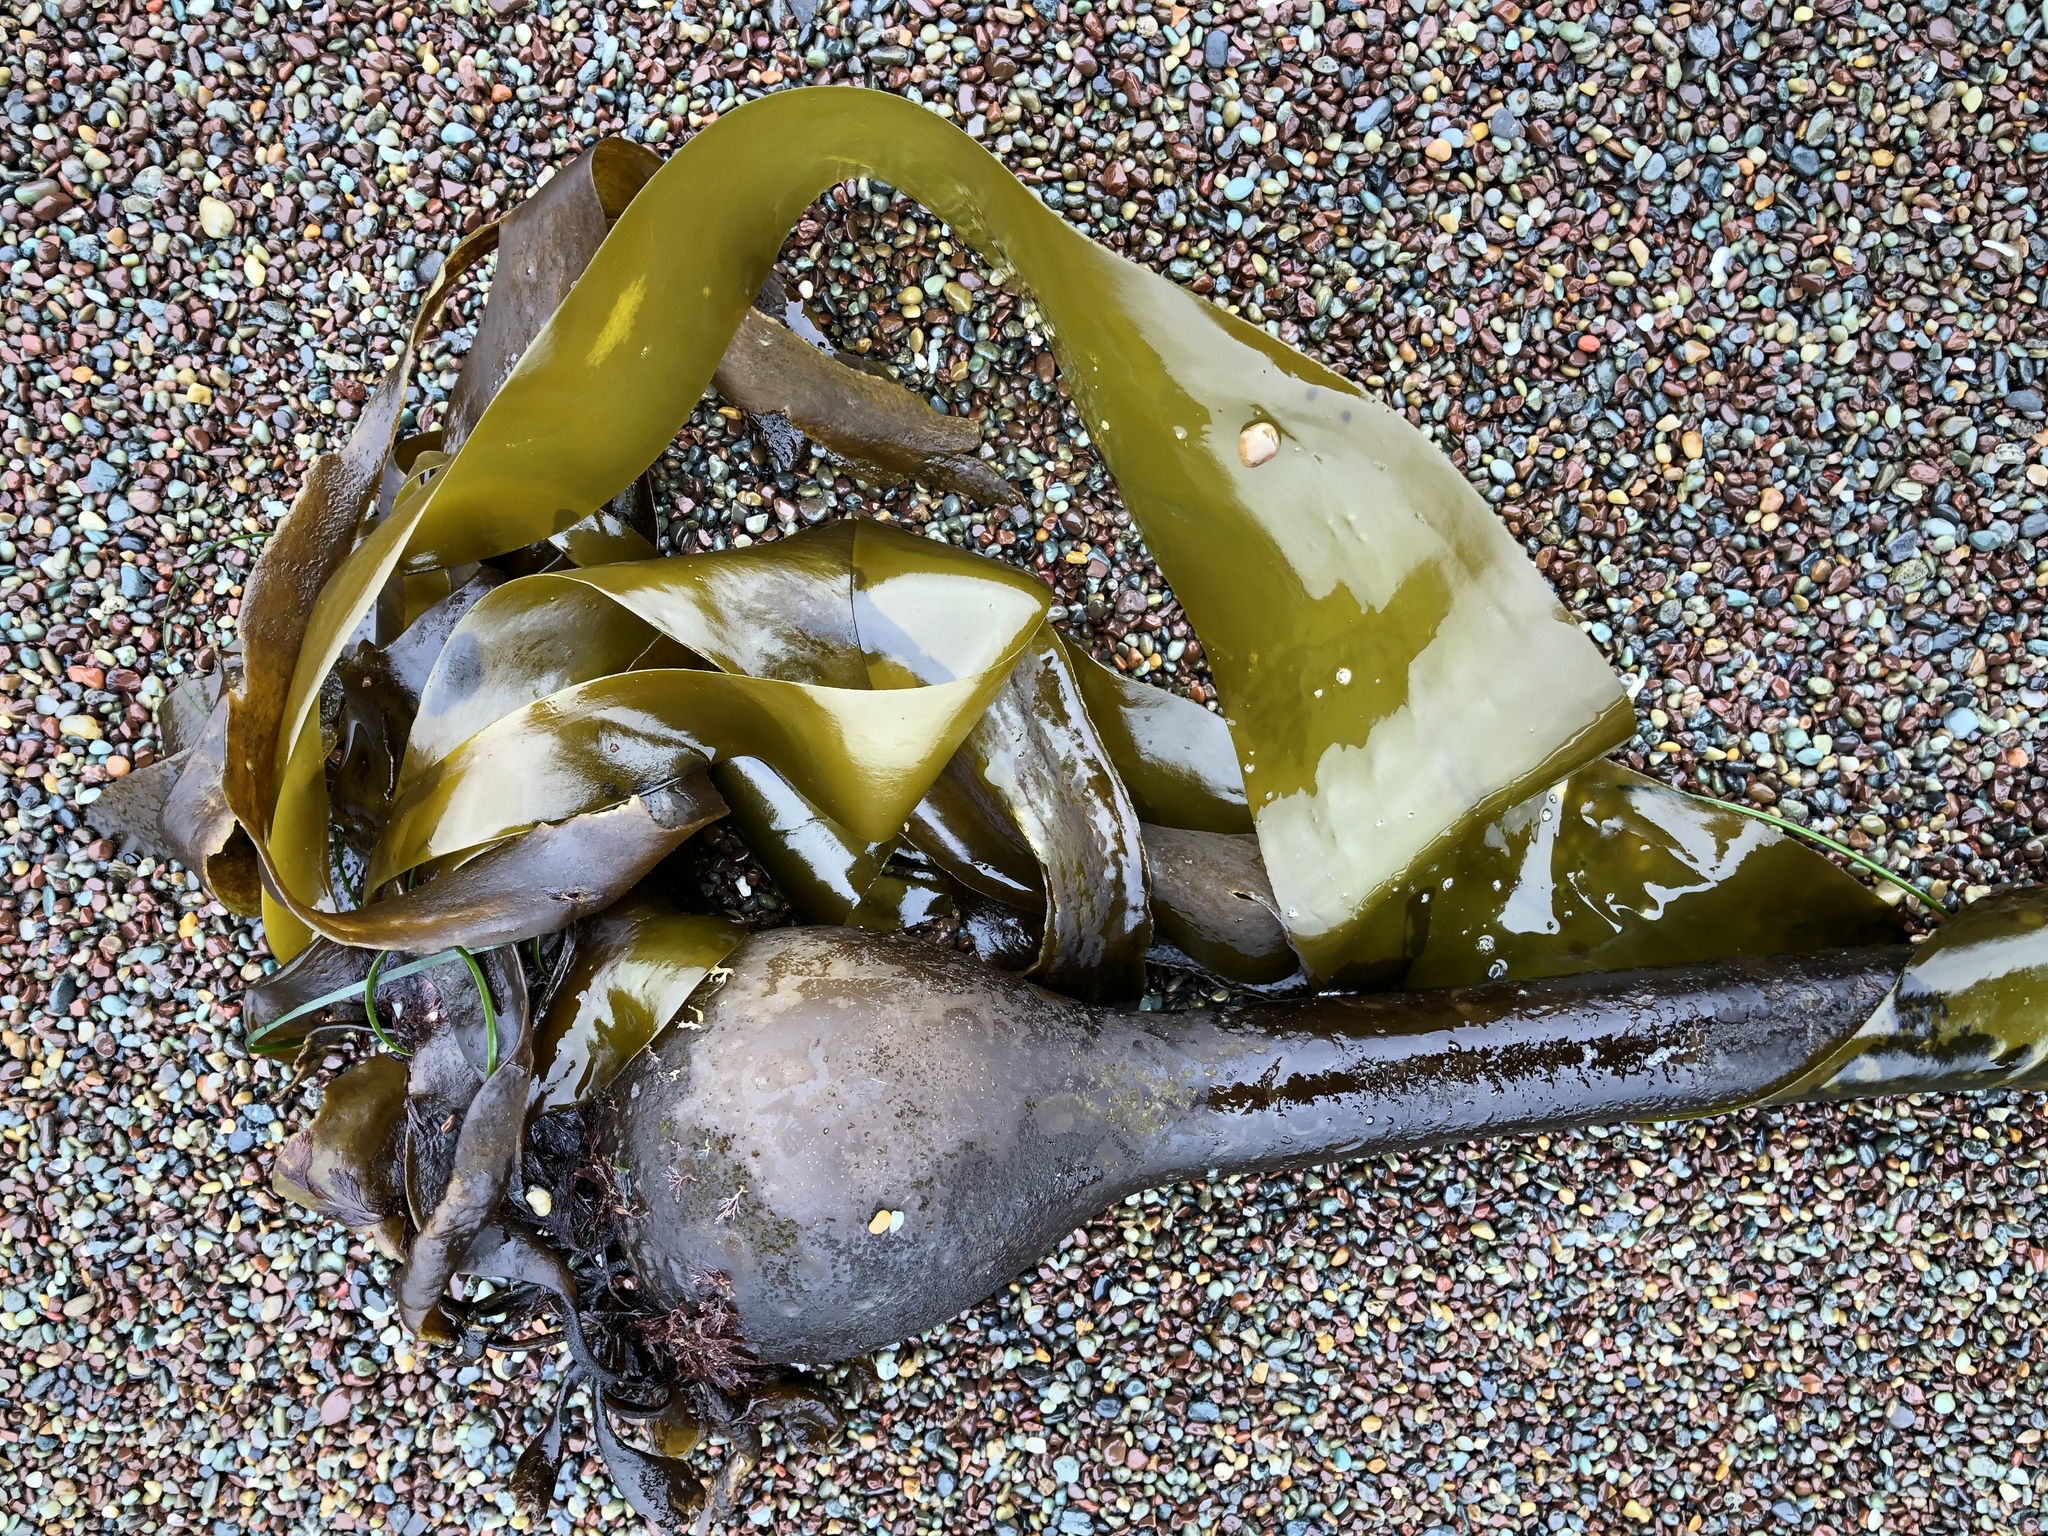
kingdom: Chromista
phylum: Ochrophyta
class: Phaeophyceae
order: Laminariales
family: Laminariaceae
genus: Nereocystis
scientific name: Nereocystis luetkeana
